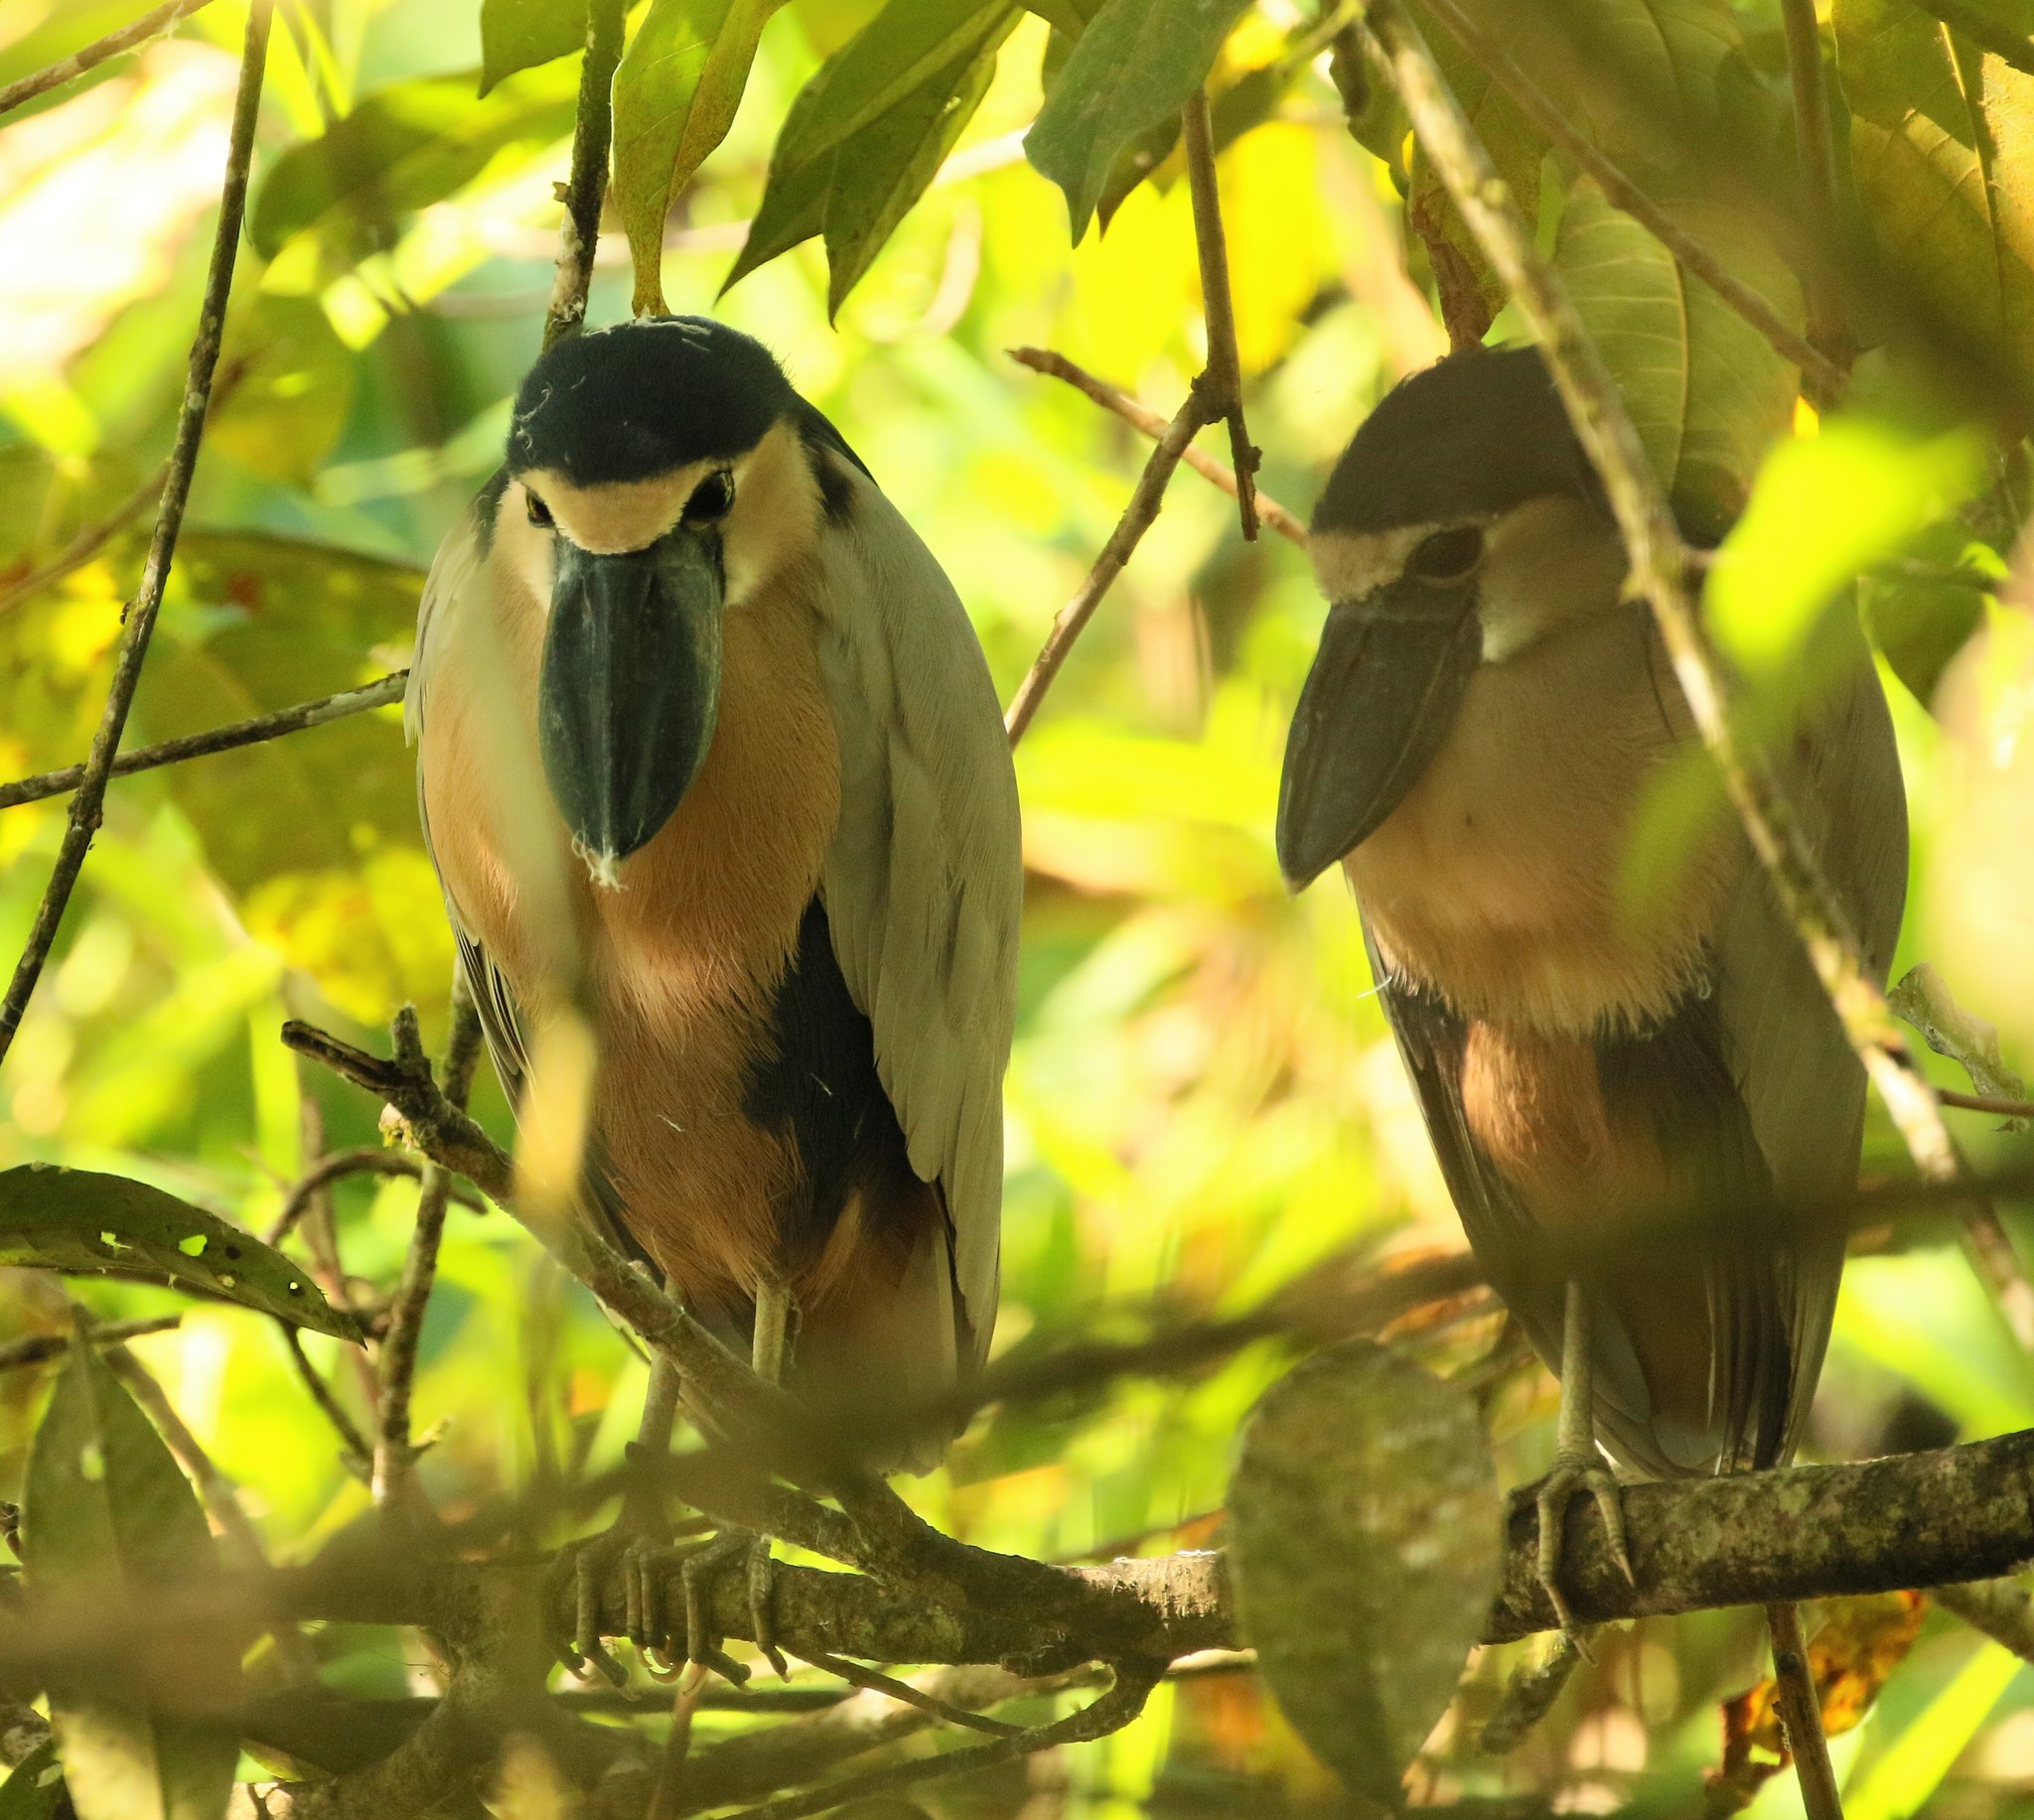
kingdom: Animalia
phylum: Chordata
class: Aves
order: Pelecaniformes
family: Ardeidae
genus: Cochlearius
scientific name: Cochlearius cochlearius
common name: Boat-billed heron
